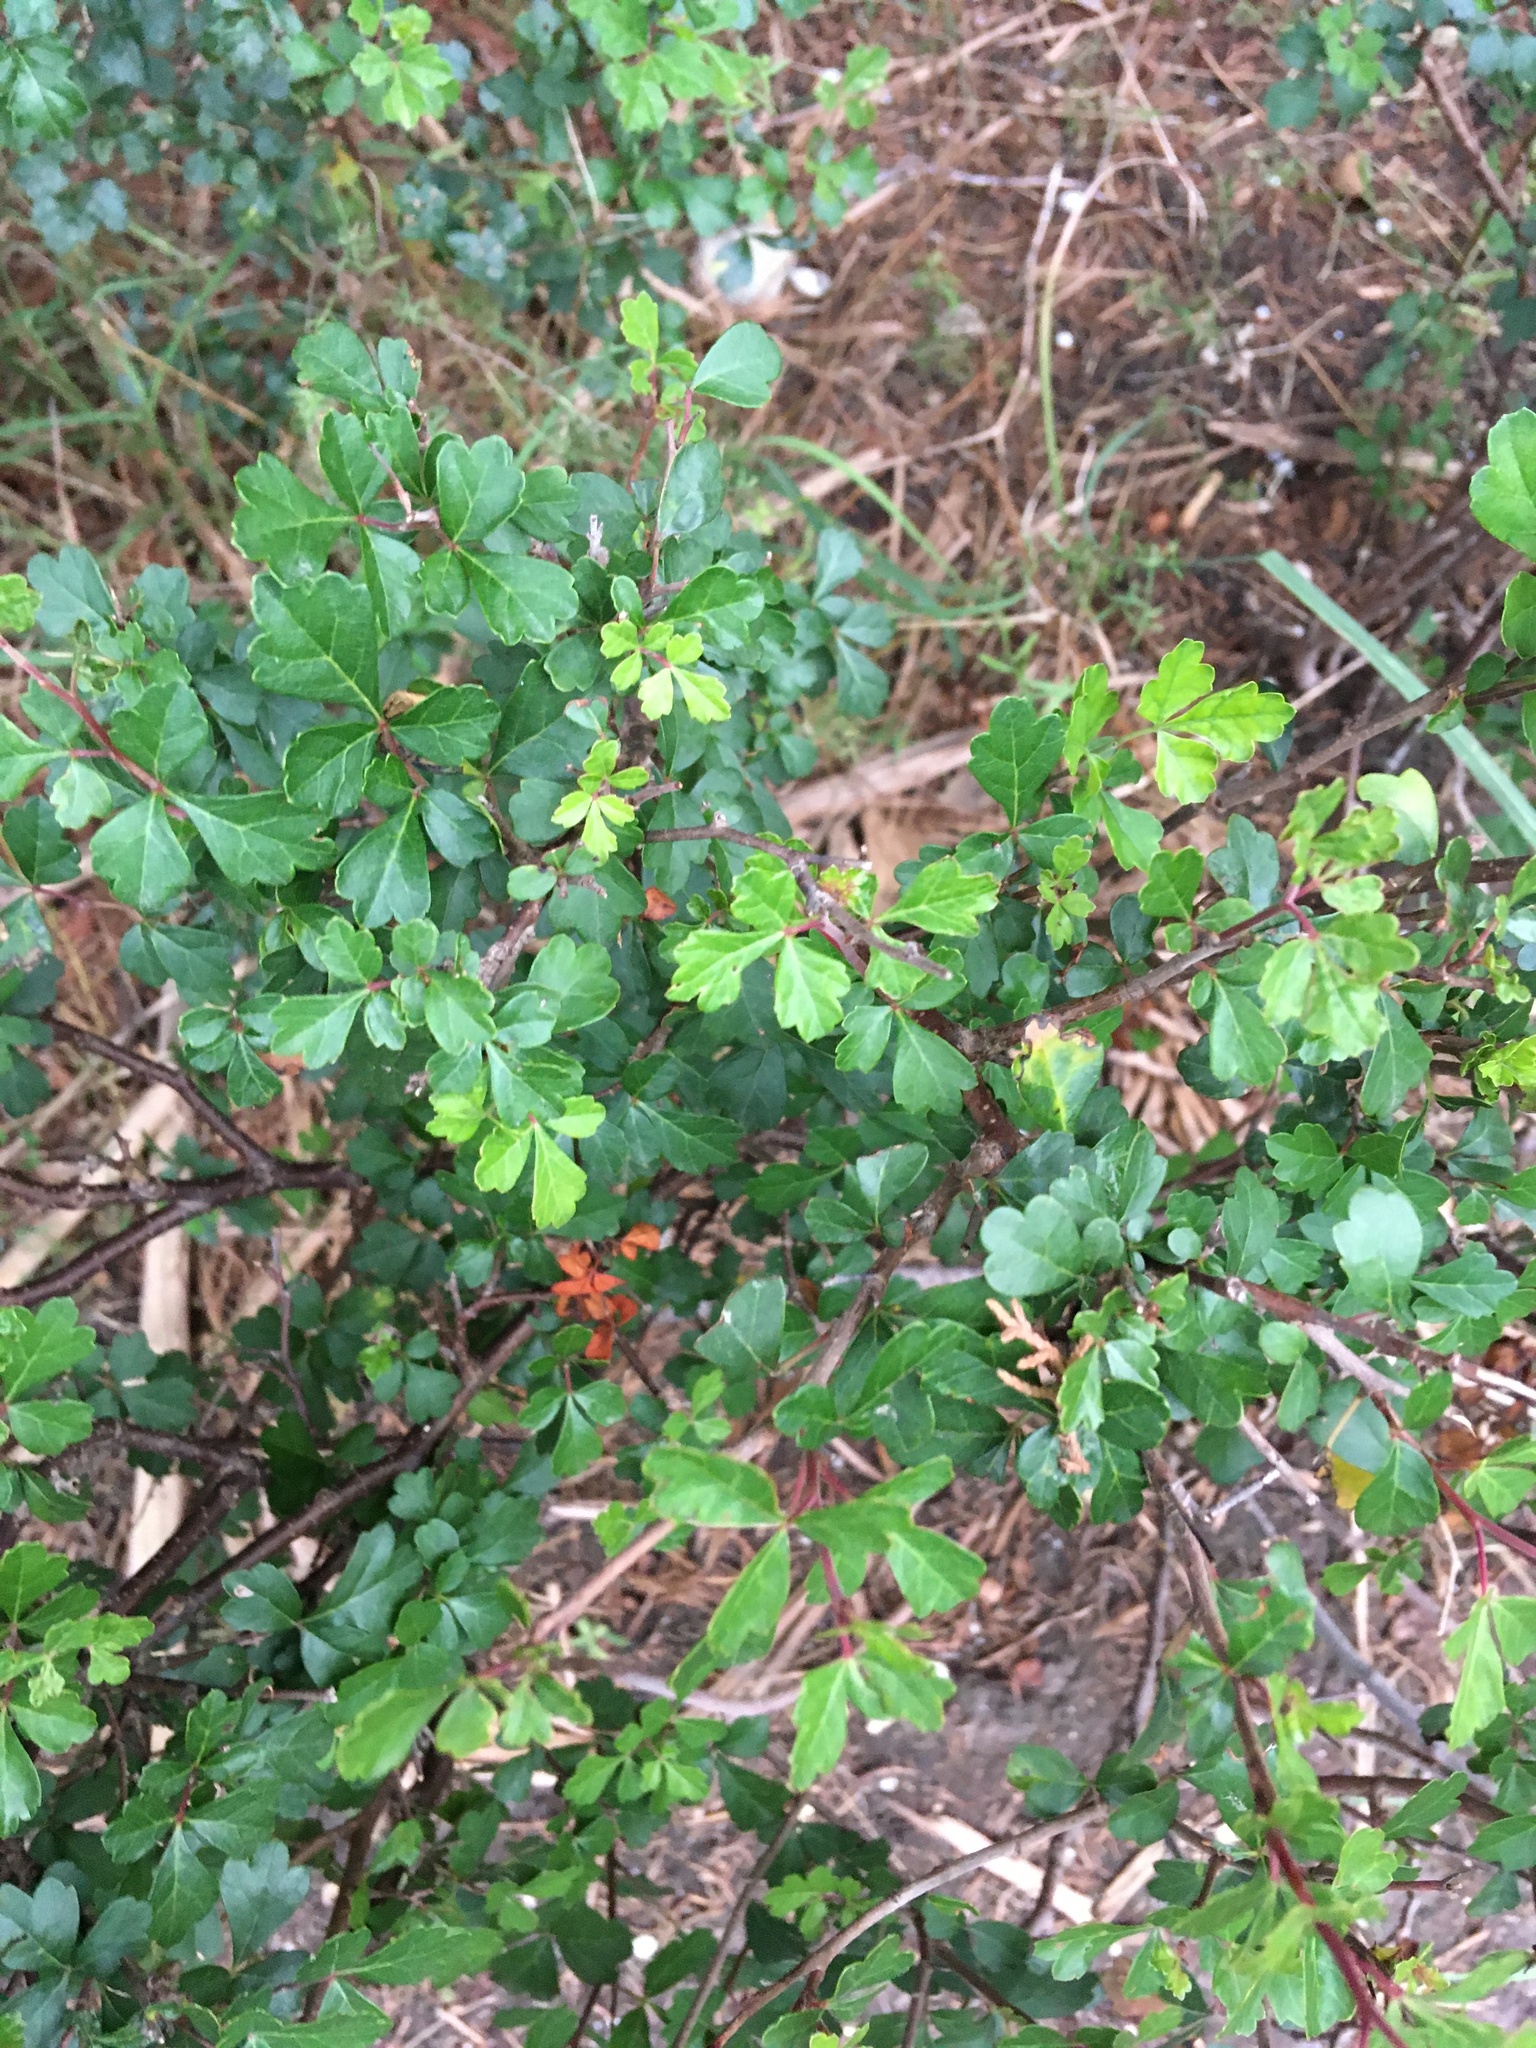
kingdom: Plantae
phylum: Tracheophyta
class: Magnoliopsida
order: Sapindales
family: Anacardiaceae
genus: Rhus
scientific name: Rhus aromatica
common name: Aromatic sumac
